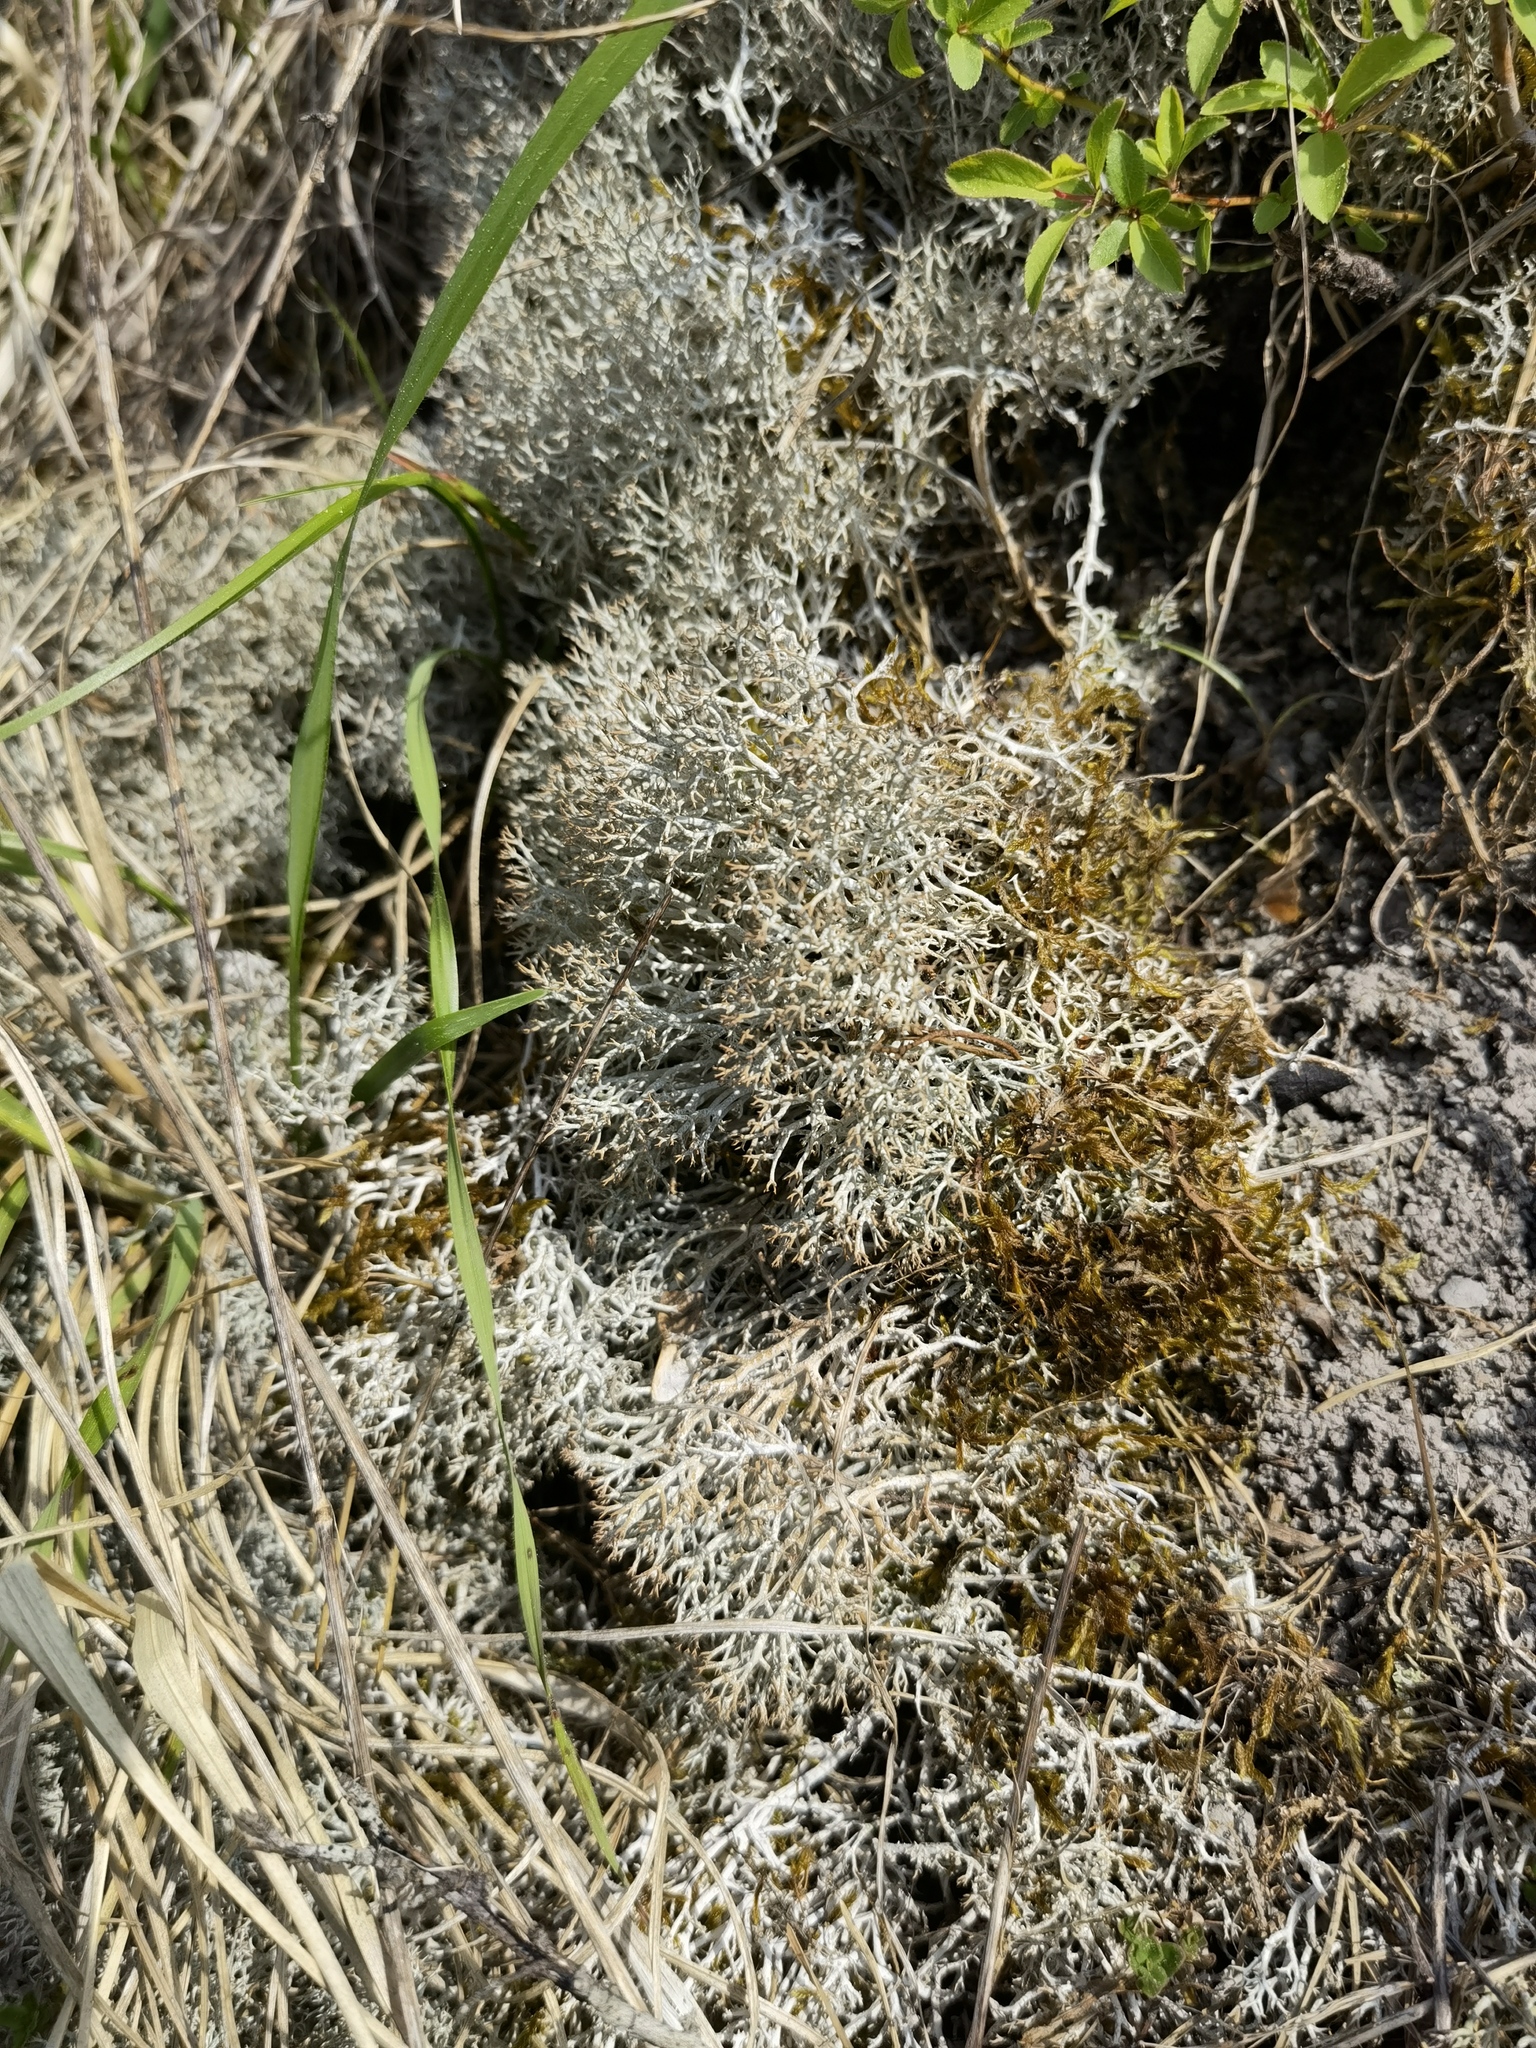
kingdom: Fungi
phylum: Ascomycota
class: Lecanoromycetes
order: Lecanorales
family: Cladoniaceae
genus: Cladonia
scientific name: Cladonia rangiformis
